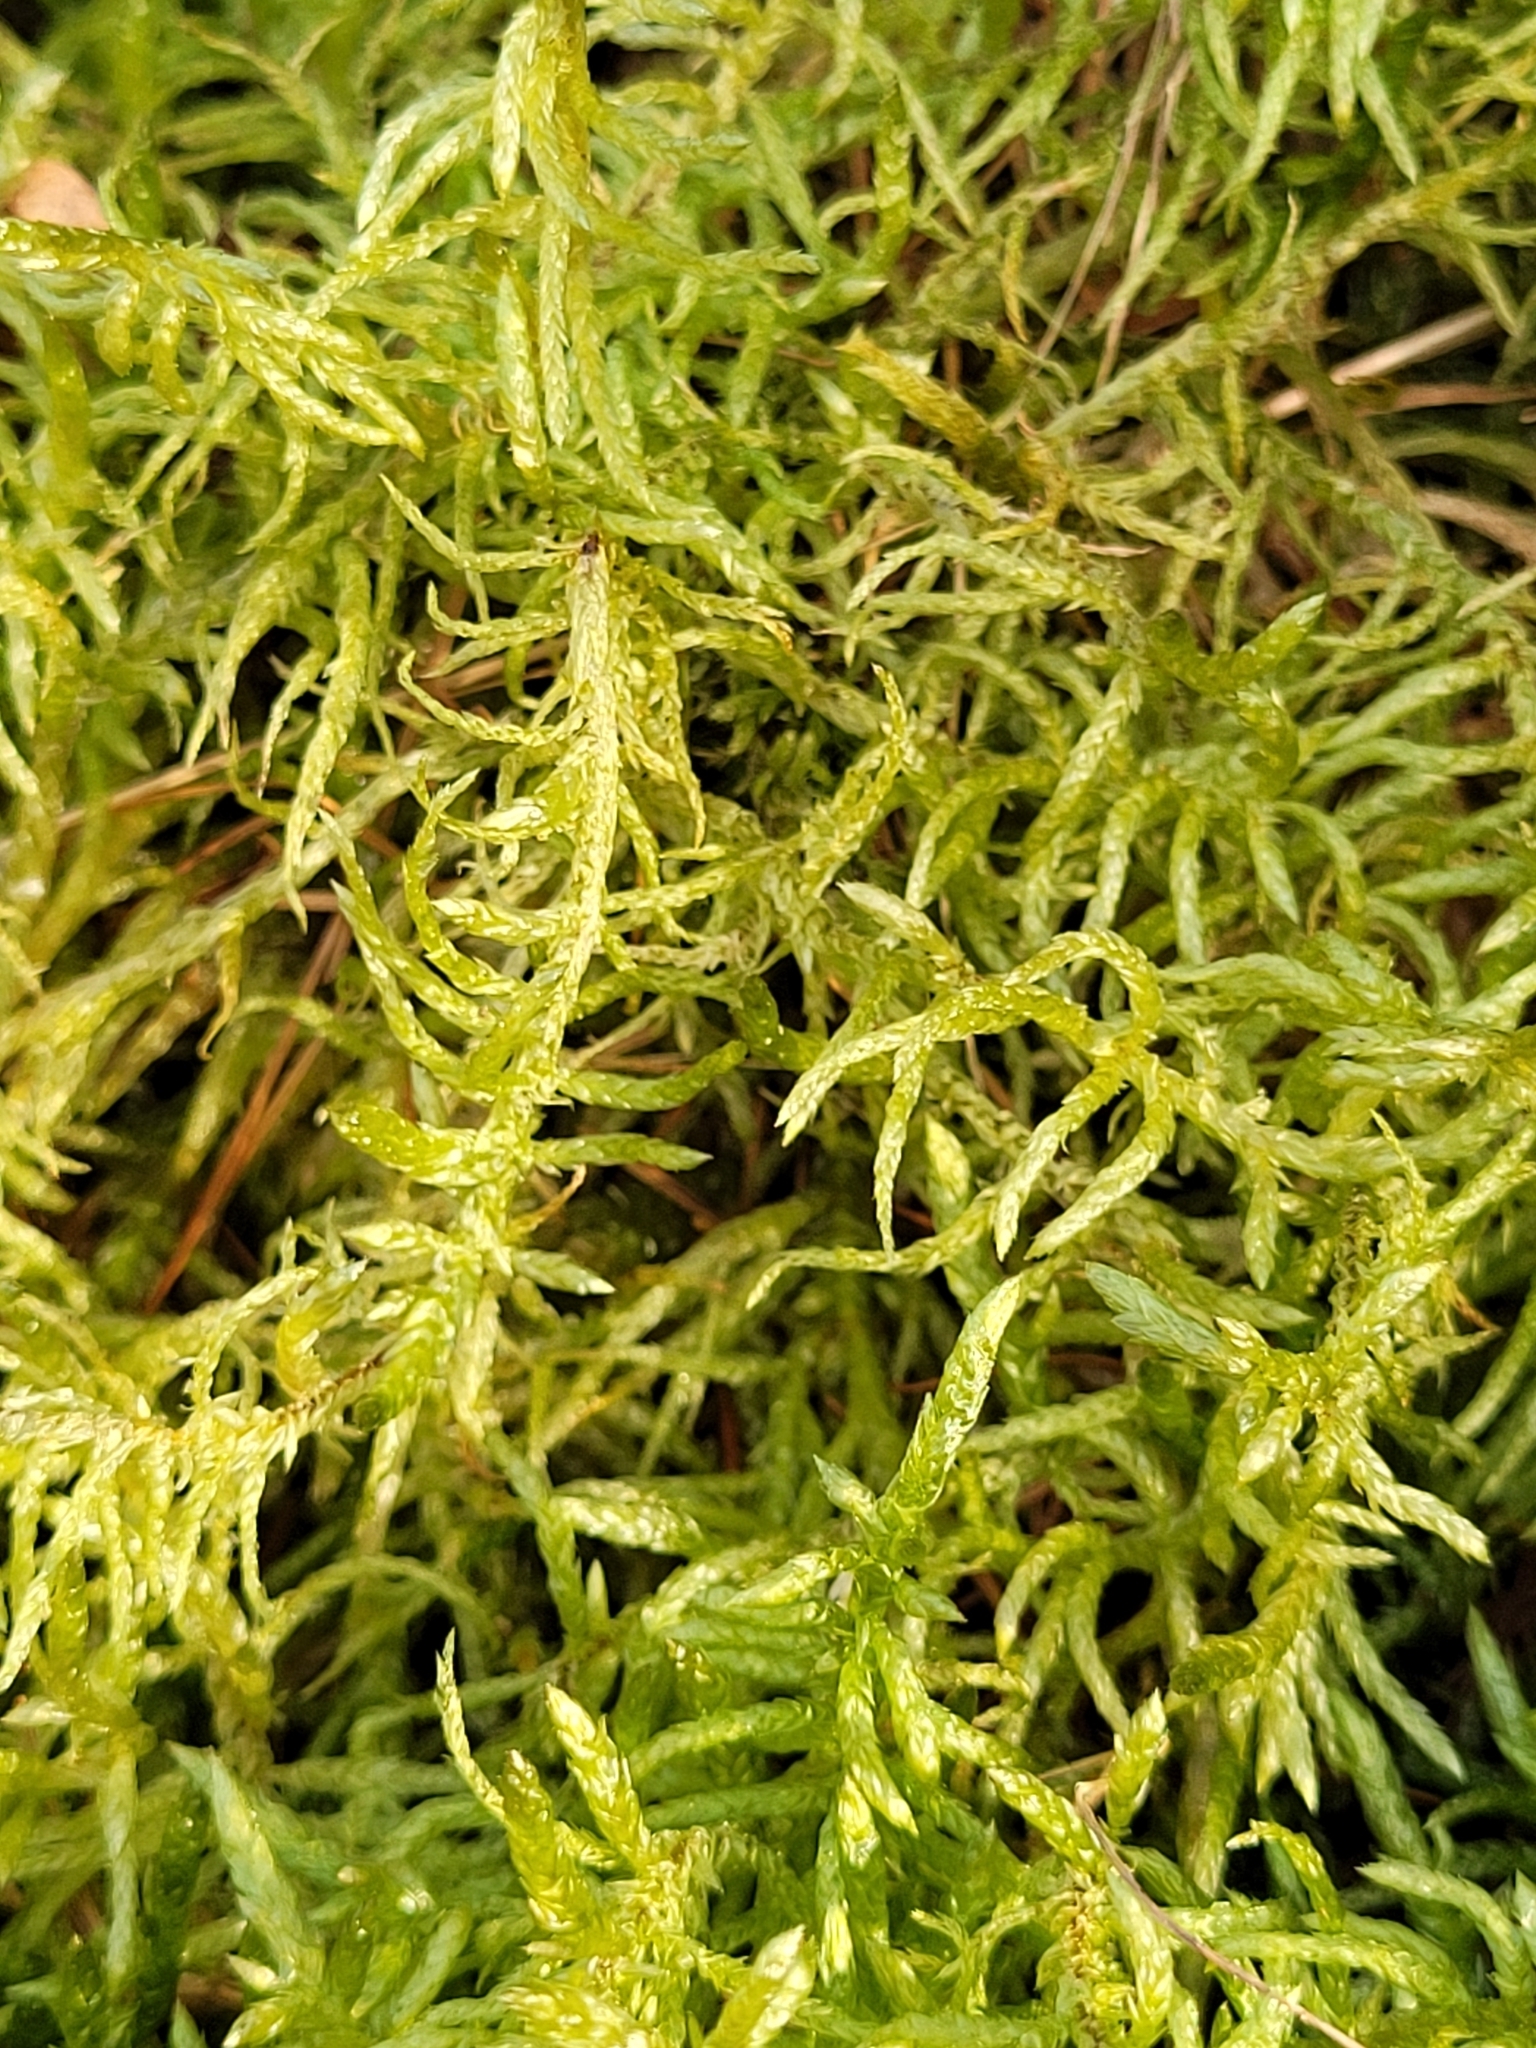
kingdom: Plantae
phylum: Bryophyta
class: Bryopsida
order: Hypnales
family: Brachytheciaceae
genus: Pseudoscleropodium
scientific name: Pseudoscleropodium purum
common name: Neat feather-moss
